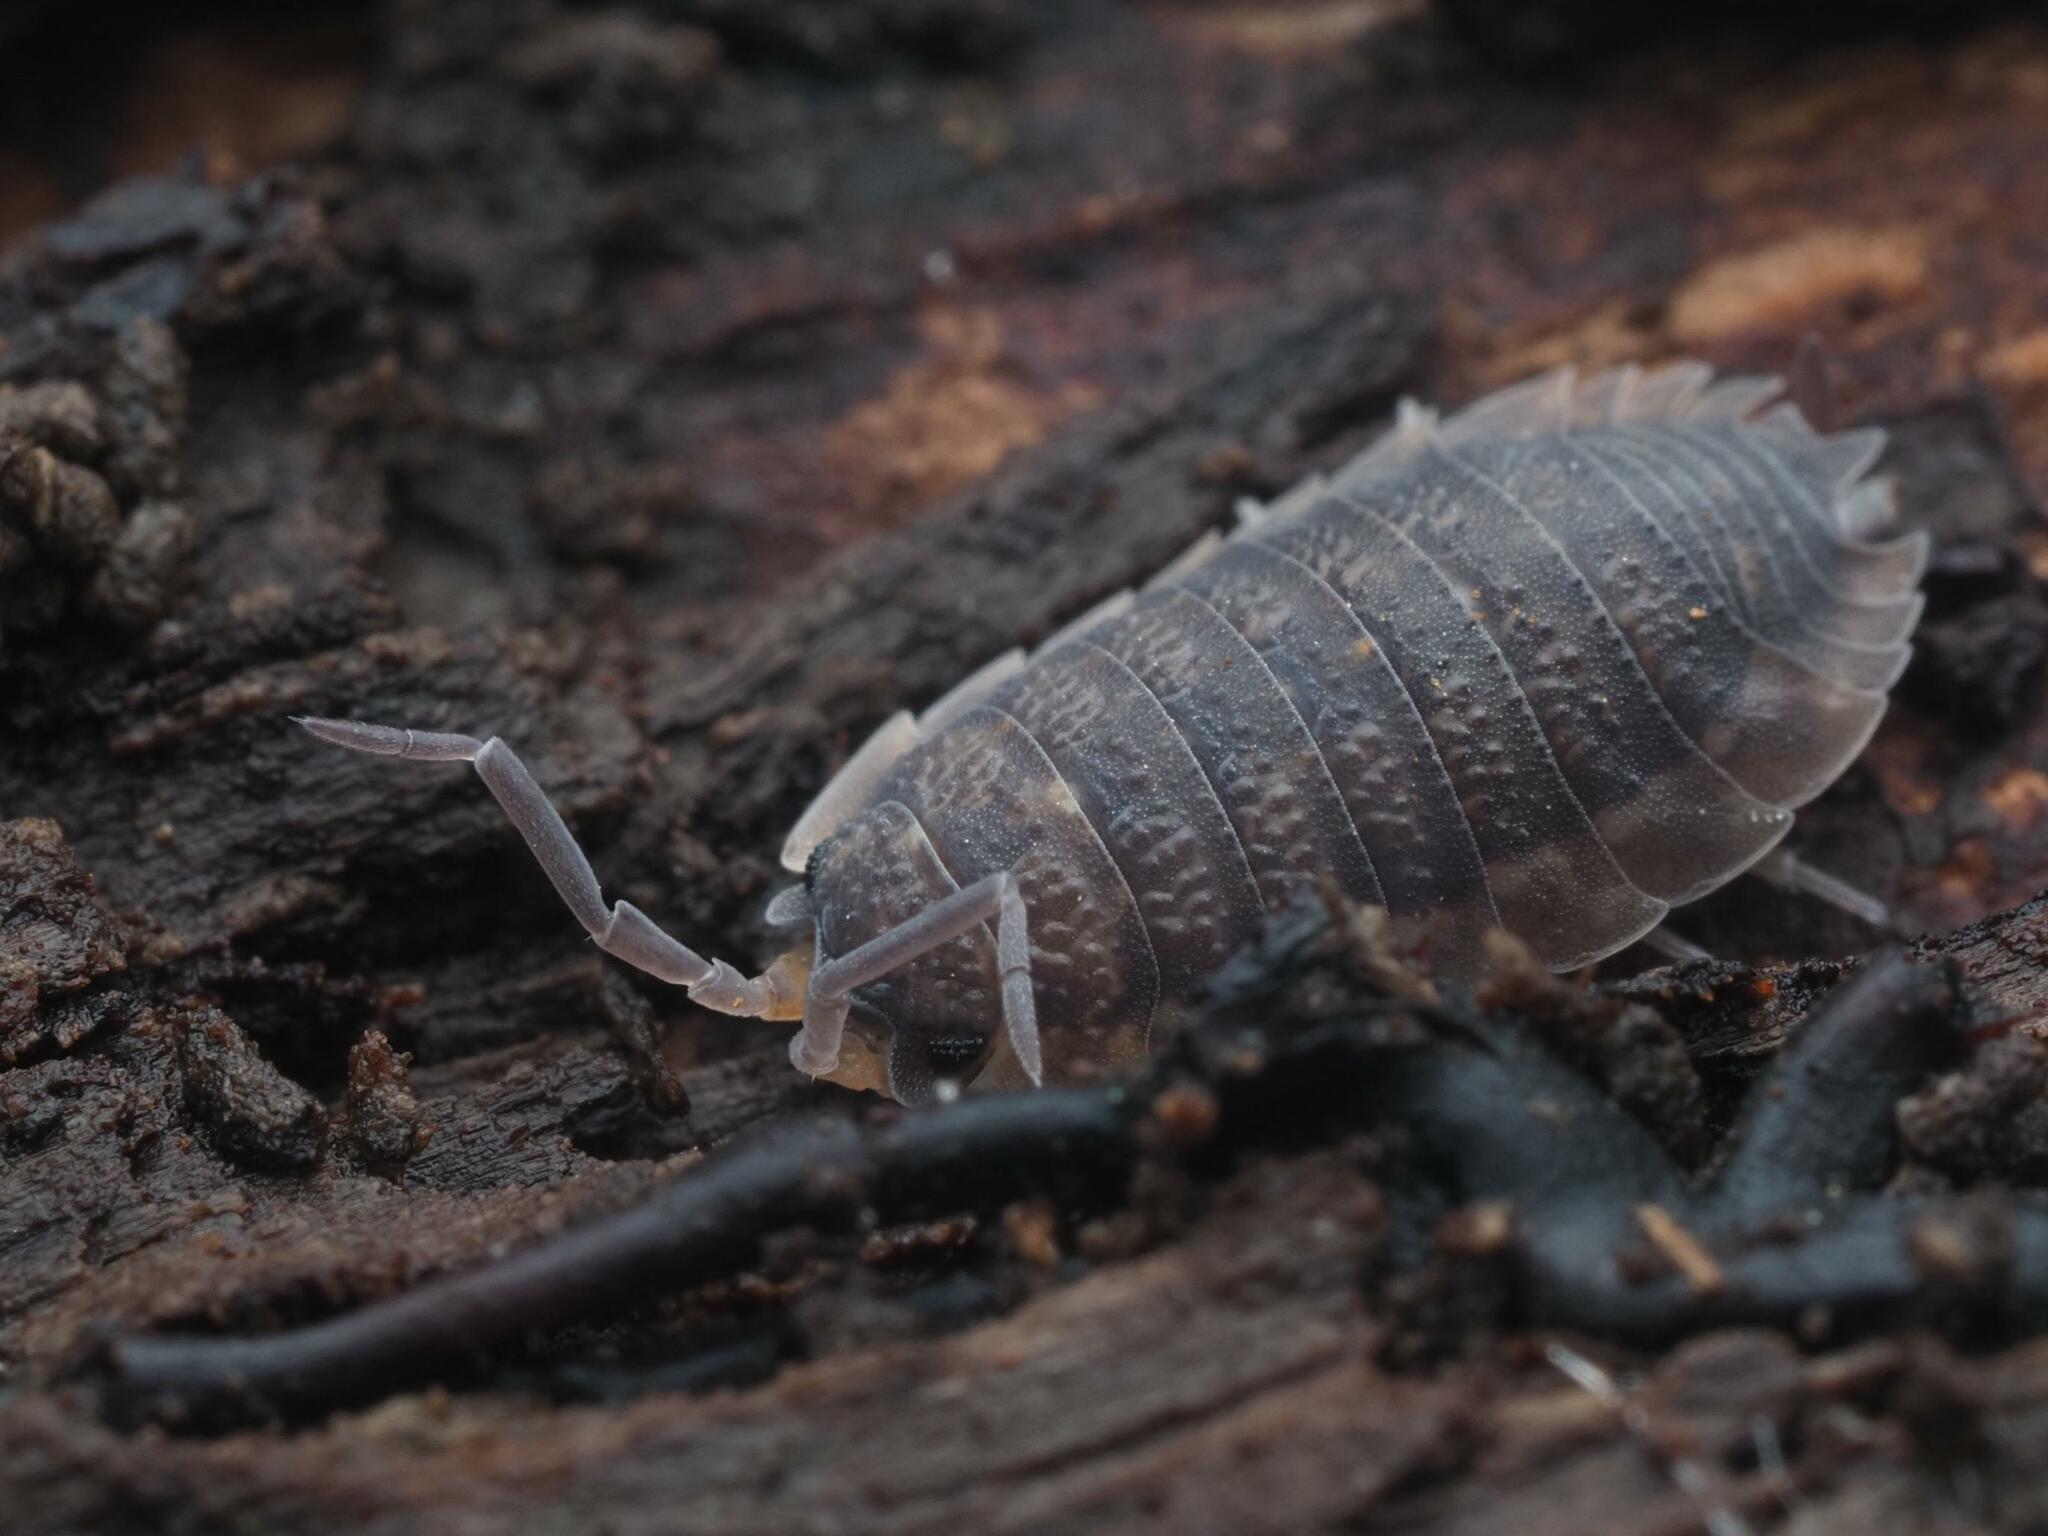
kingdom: Animalia
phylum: Arthropoda
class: Malacostraca
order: Isopoda
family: Porcellionidae
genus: Porcellio
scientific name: Porcellio scaber
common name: Common rough woodlouse
